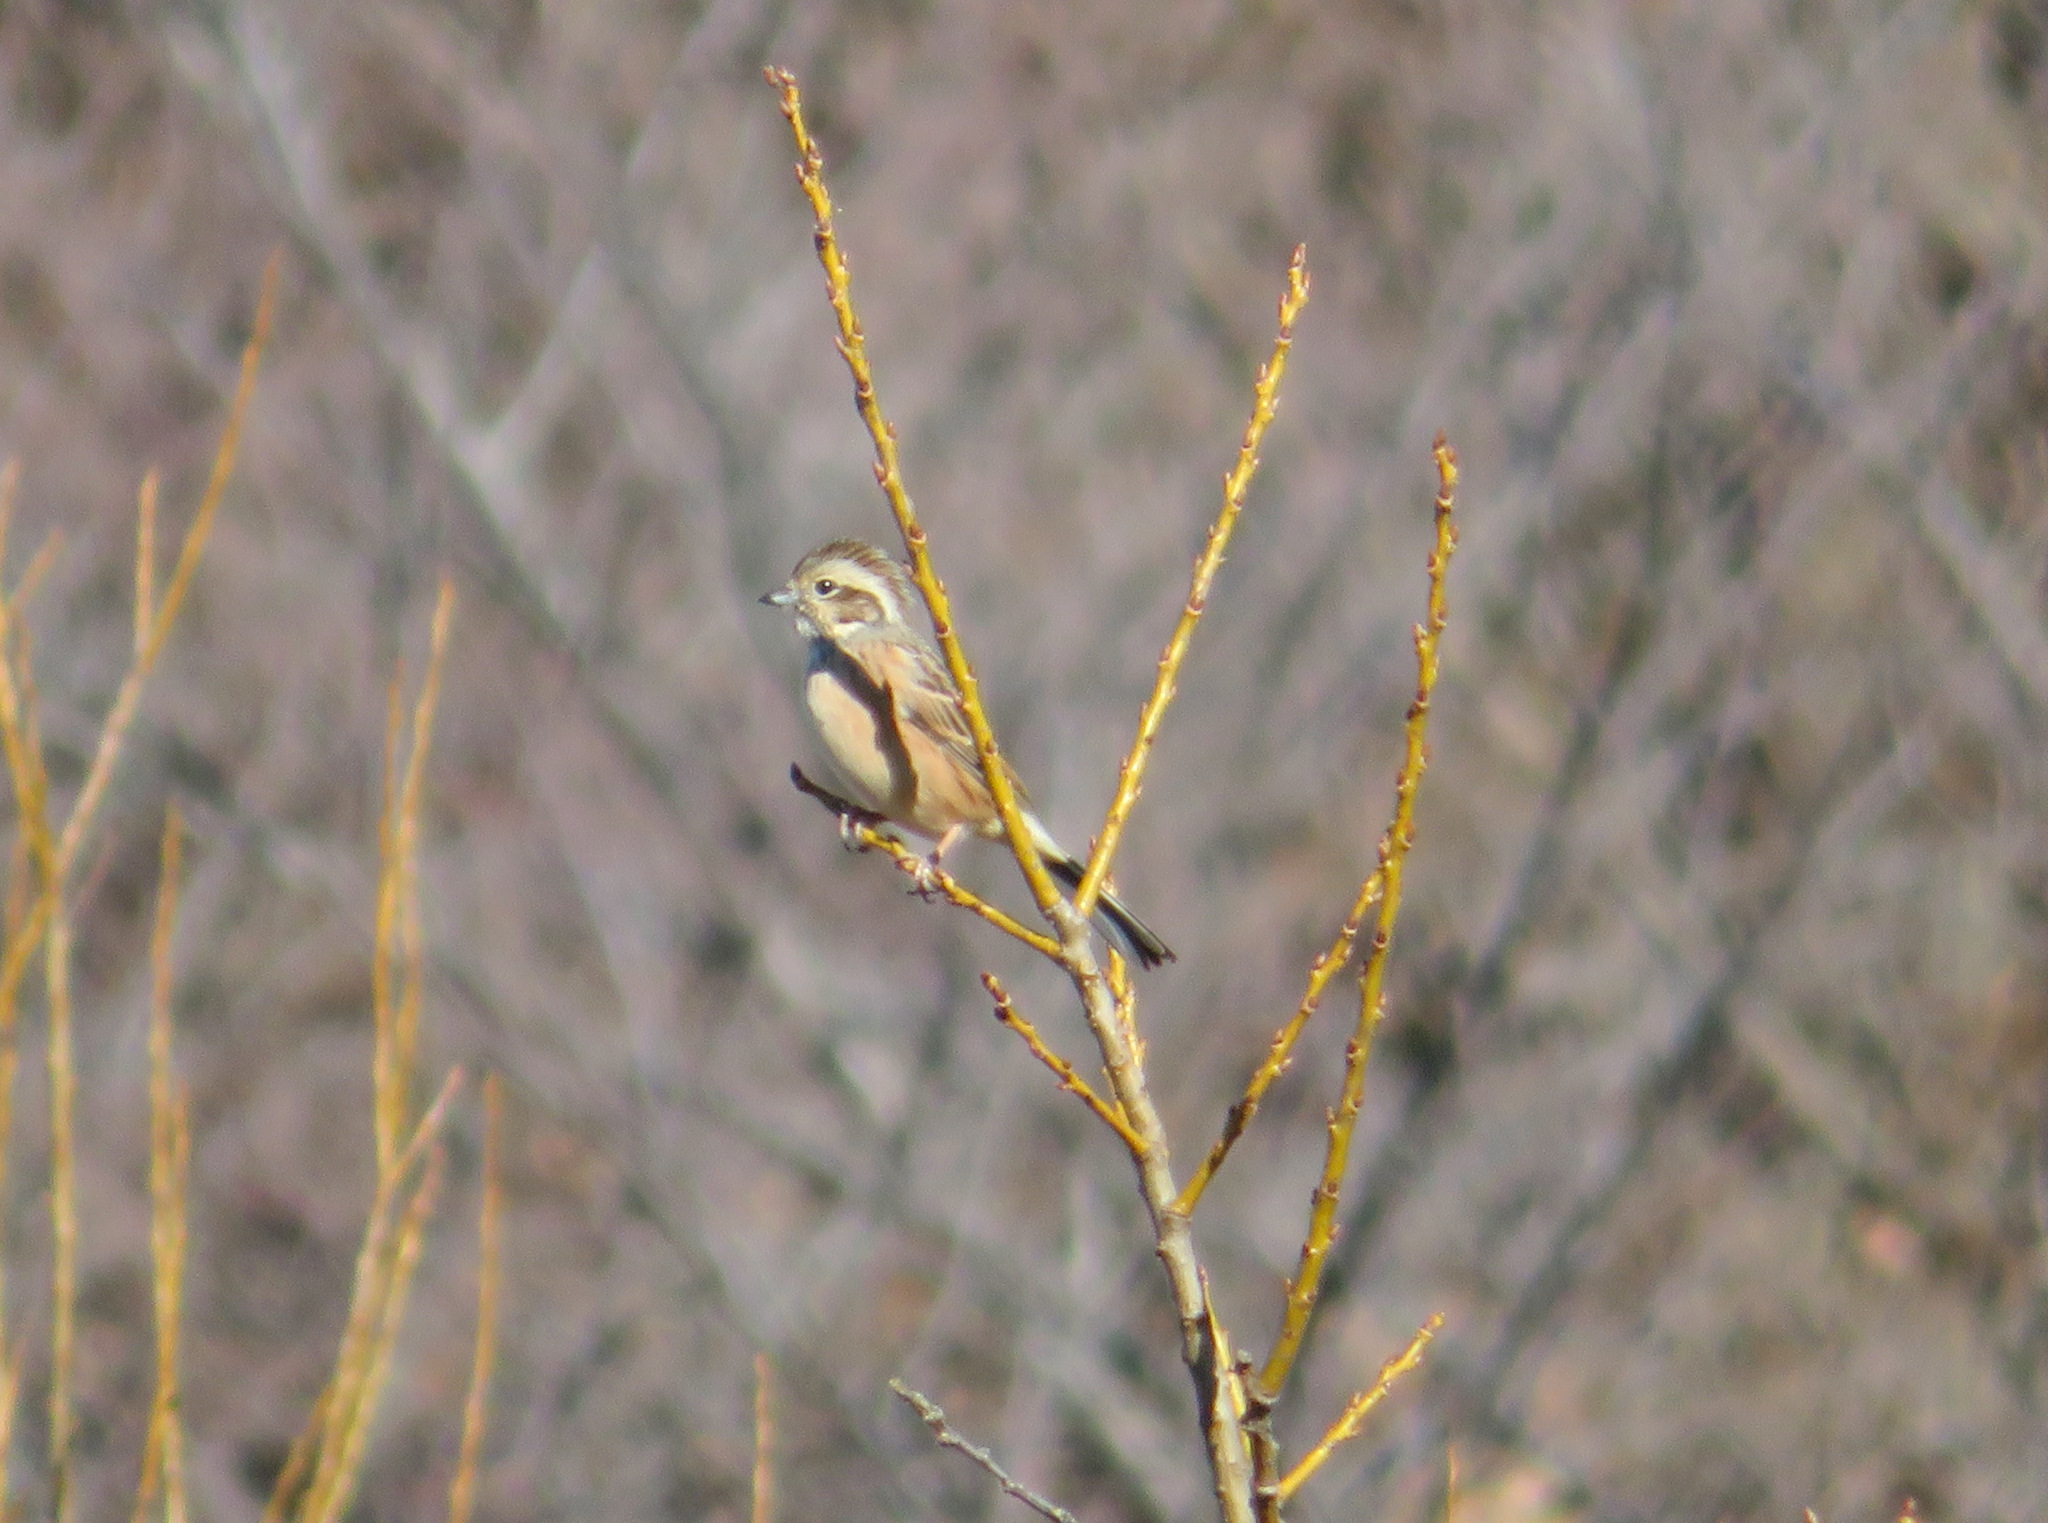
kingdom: Animalia
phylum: Chordata
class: Aves
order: Passeriformes
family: Emberizidae
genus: Emberiza
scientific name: Emberiza cioides
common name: Meadow bunting
